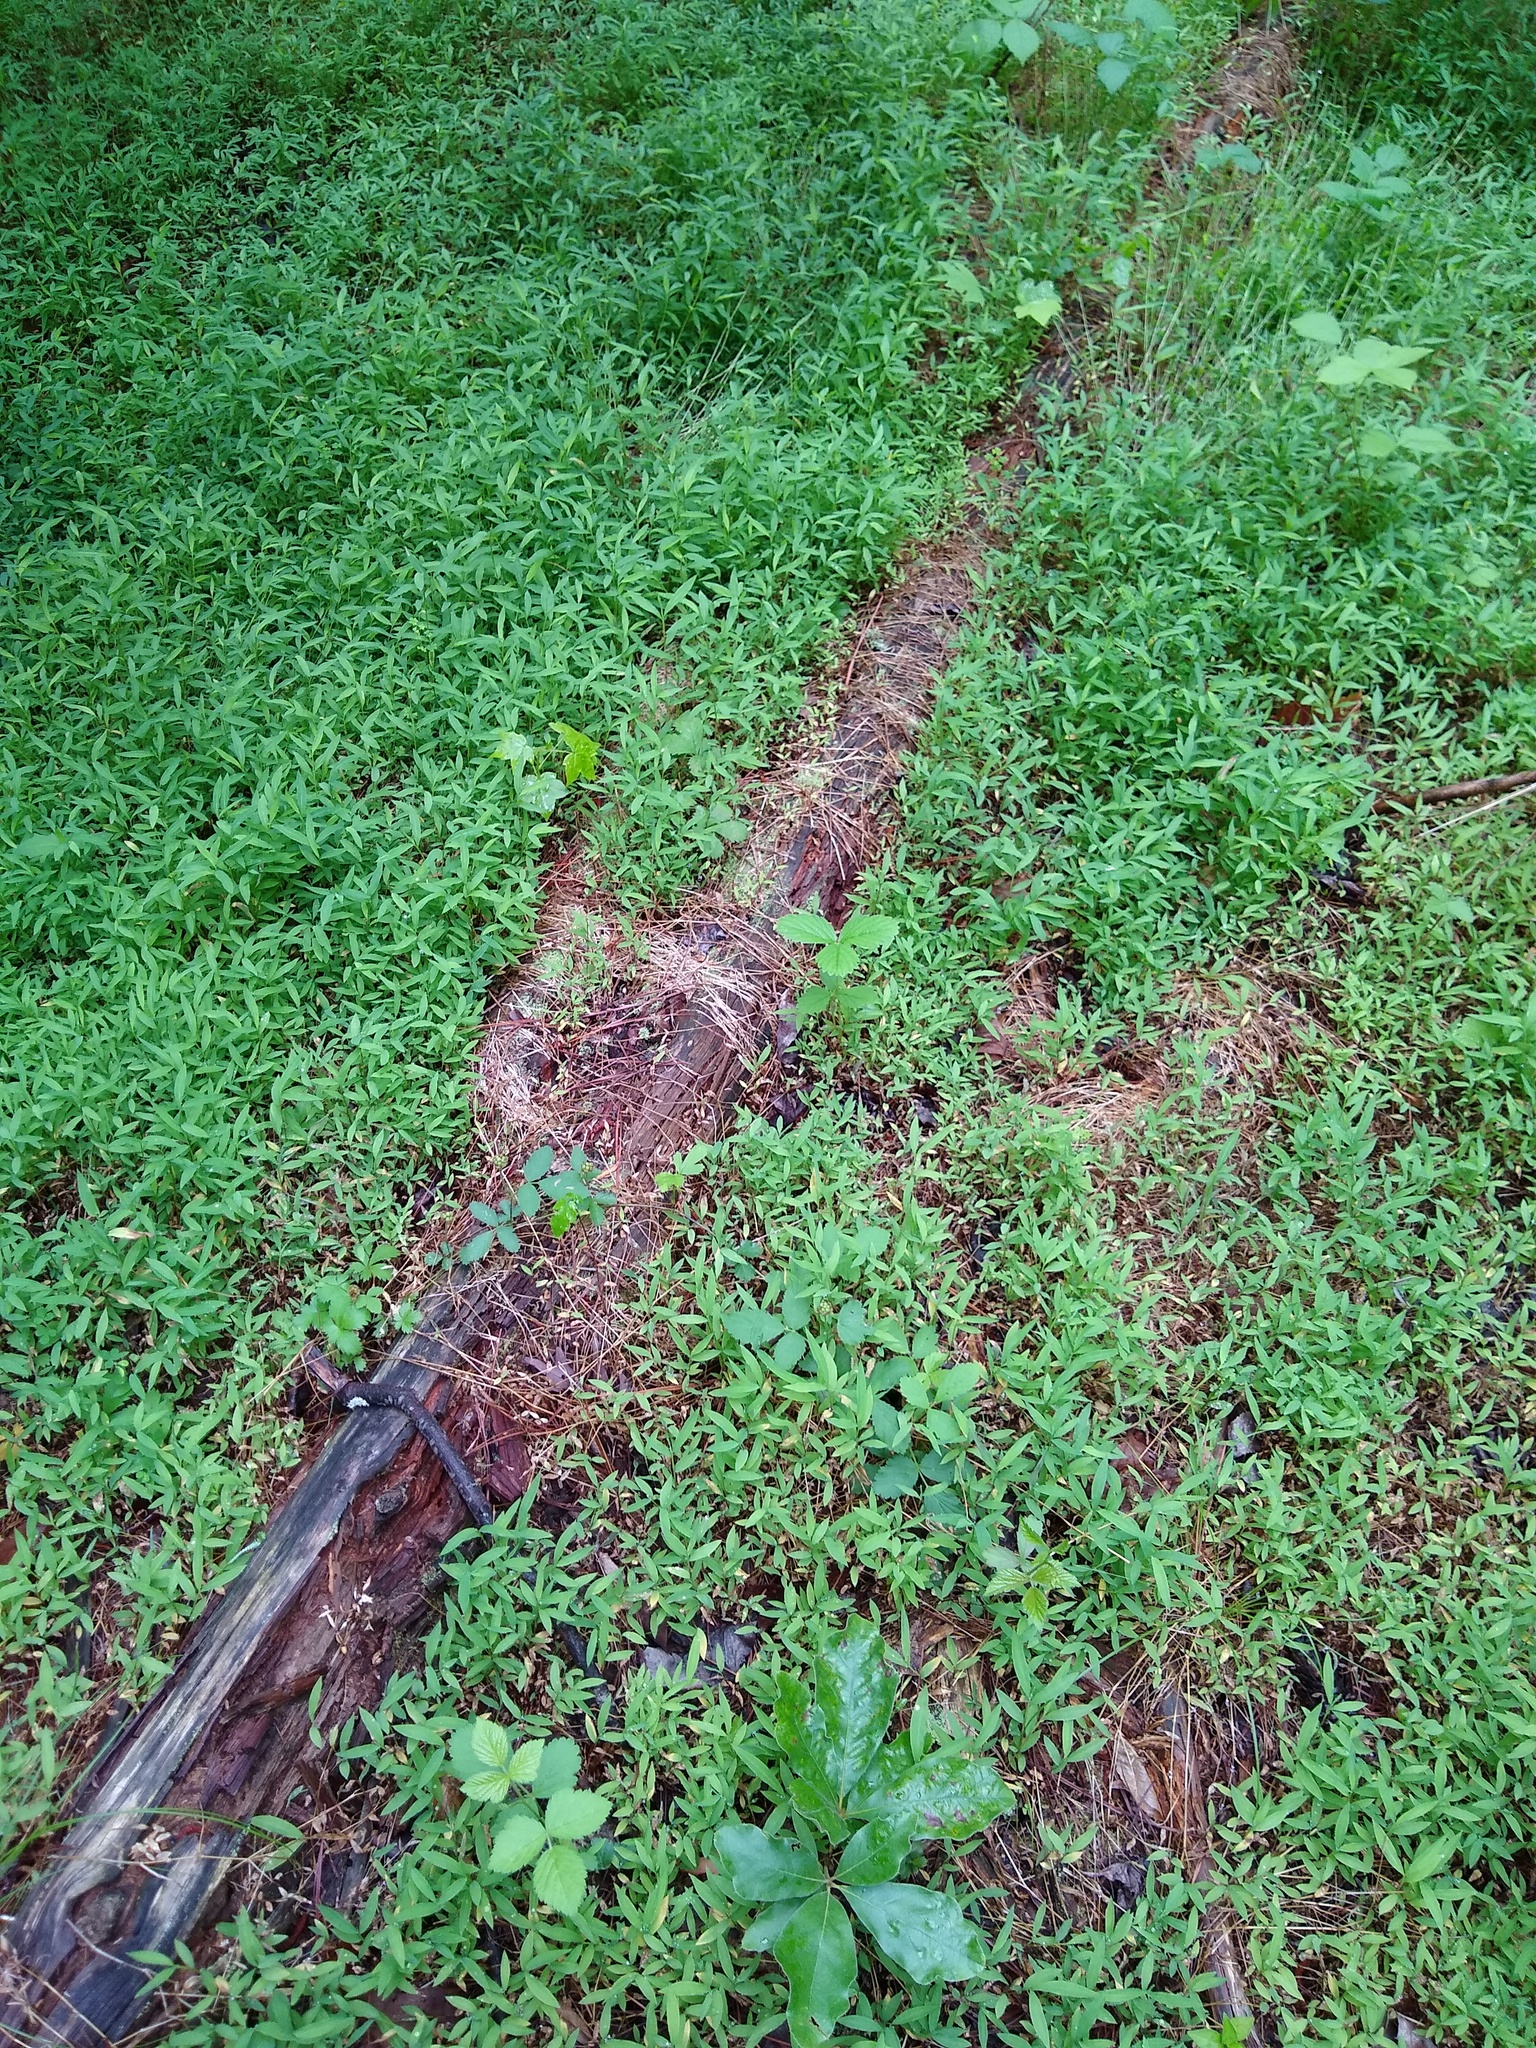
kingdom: Plantae
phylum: Tracheophyta
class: Liliopsida
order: Poales
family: Poaceae
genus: Microstegium
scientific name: Microstegium vimineum
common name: Japanese stiltgrass
